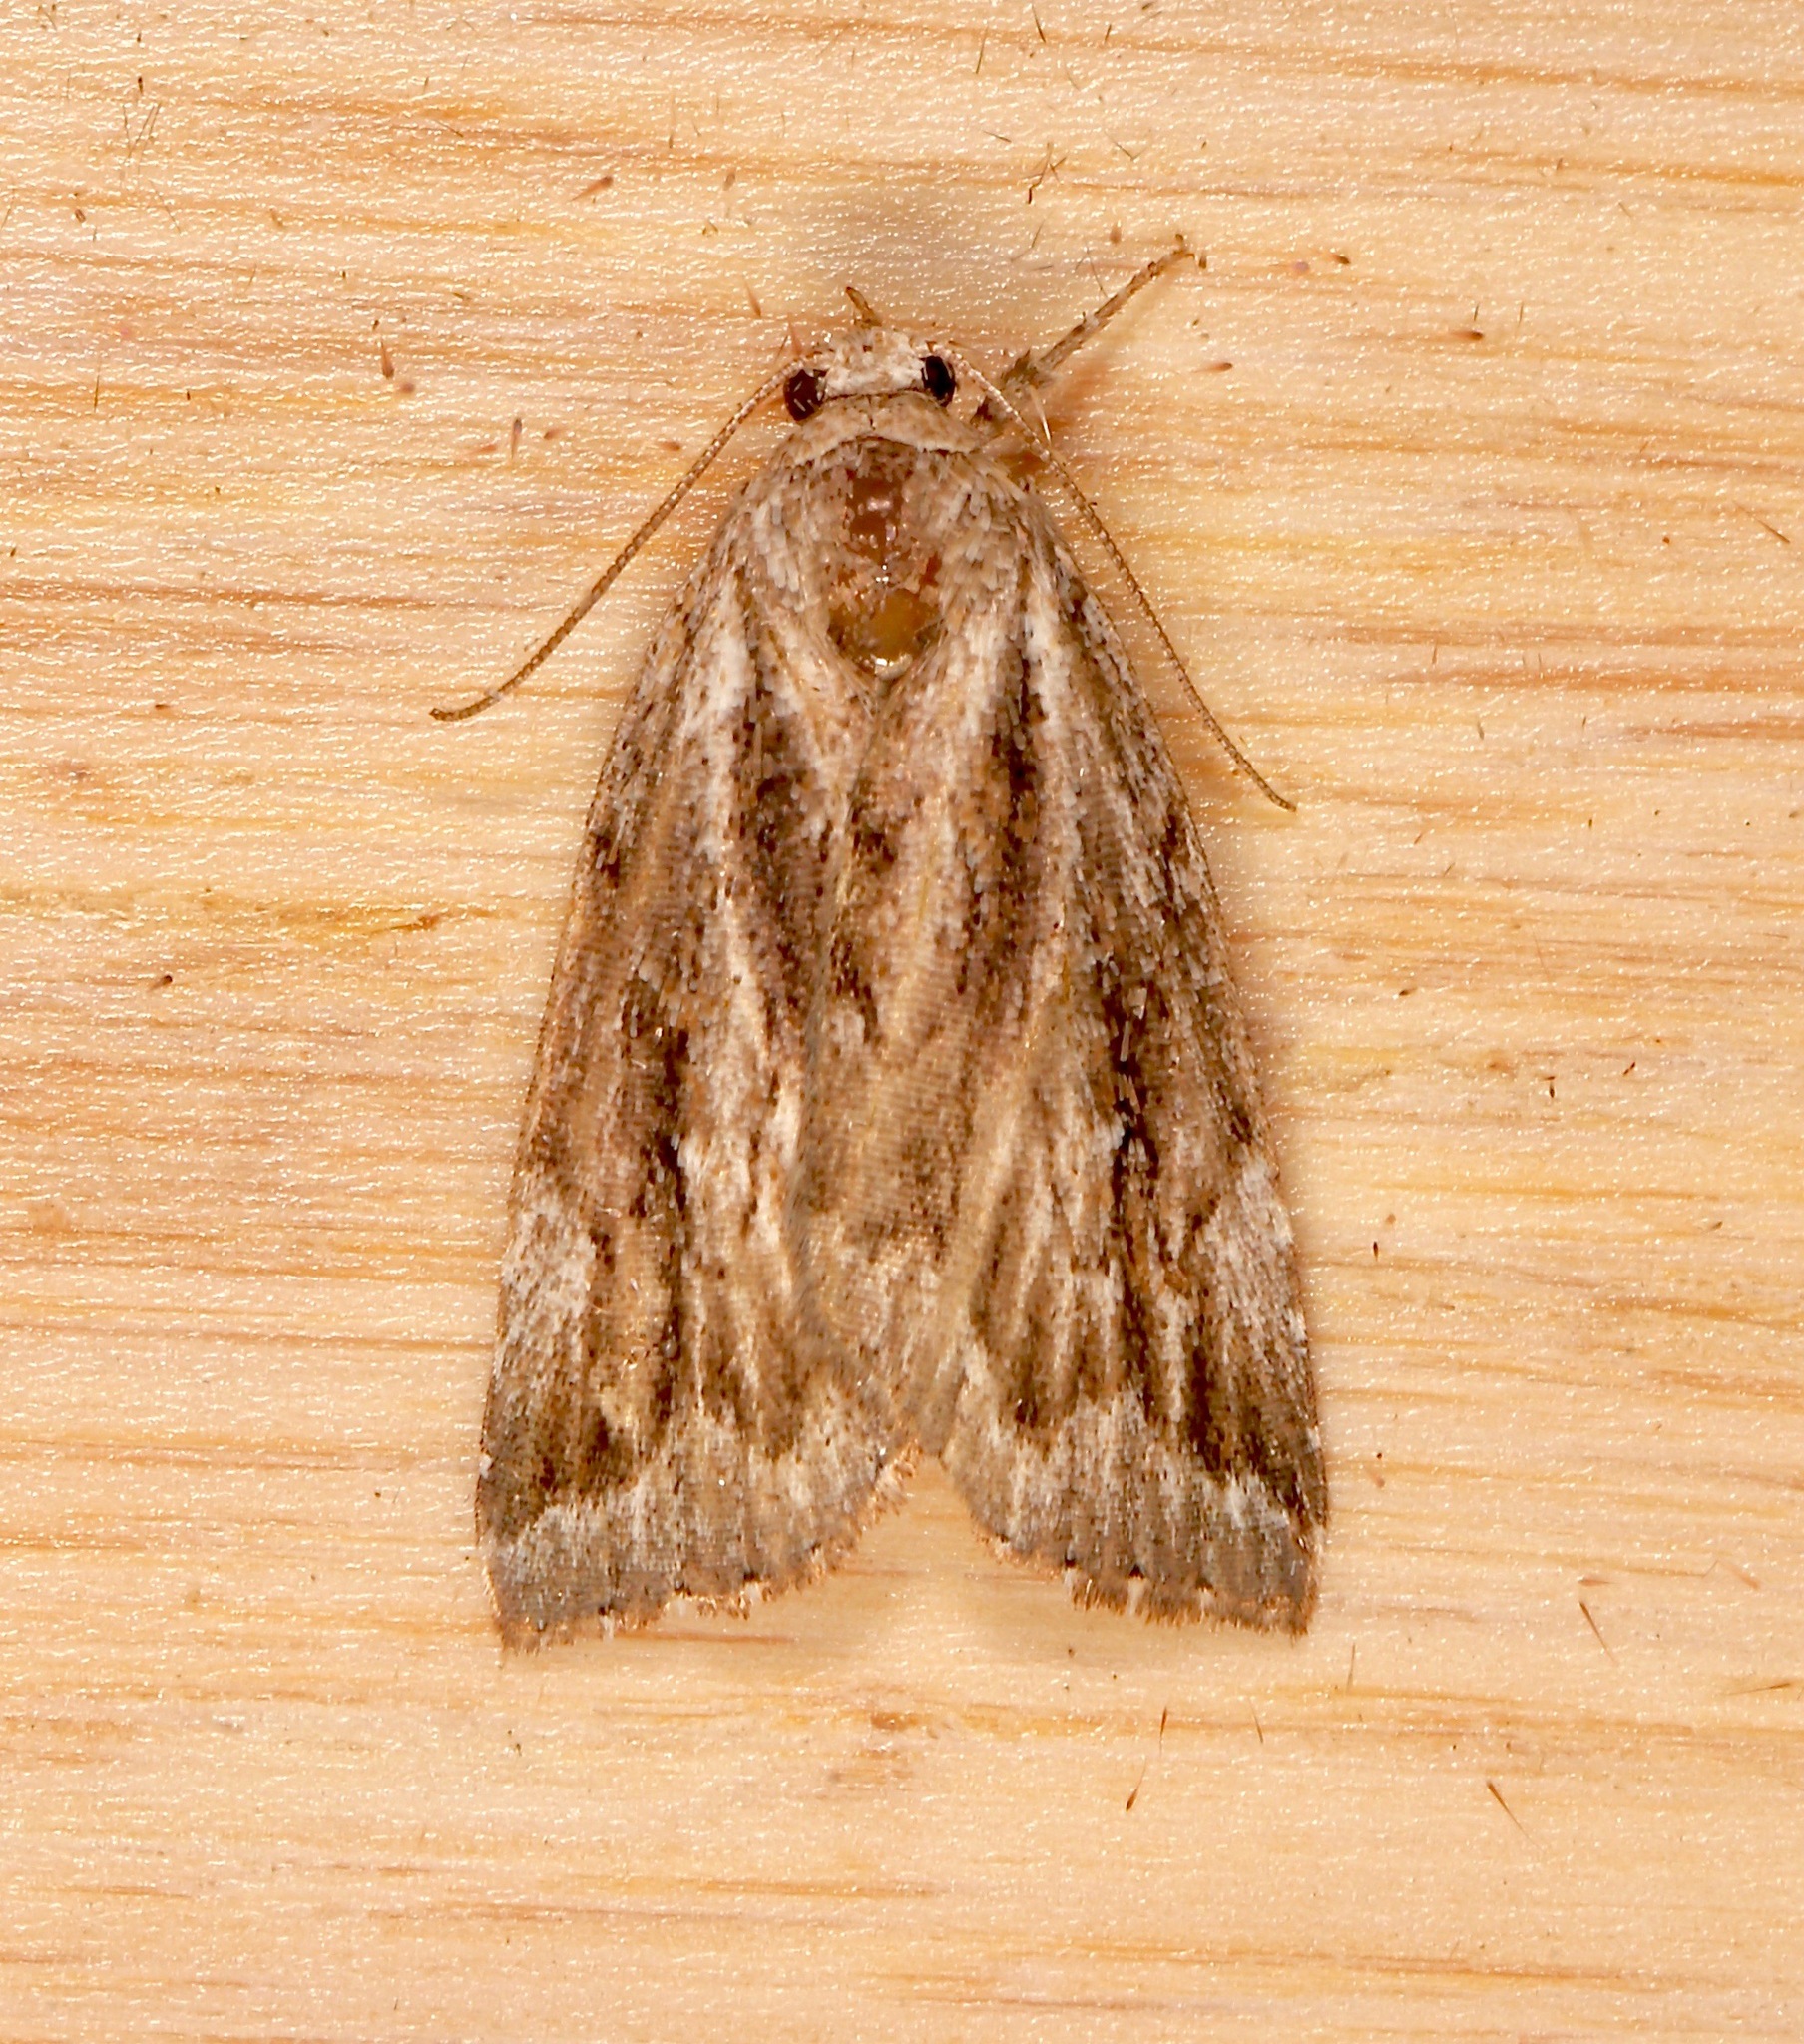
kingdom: Animalia
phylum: Arthropoda
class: Insecta
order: Lepidoptera
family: Erebidae
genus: Cutina
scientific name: Cutina albopunctella
